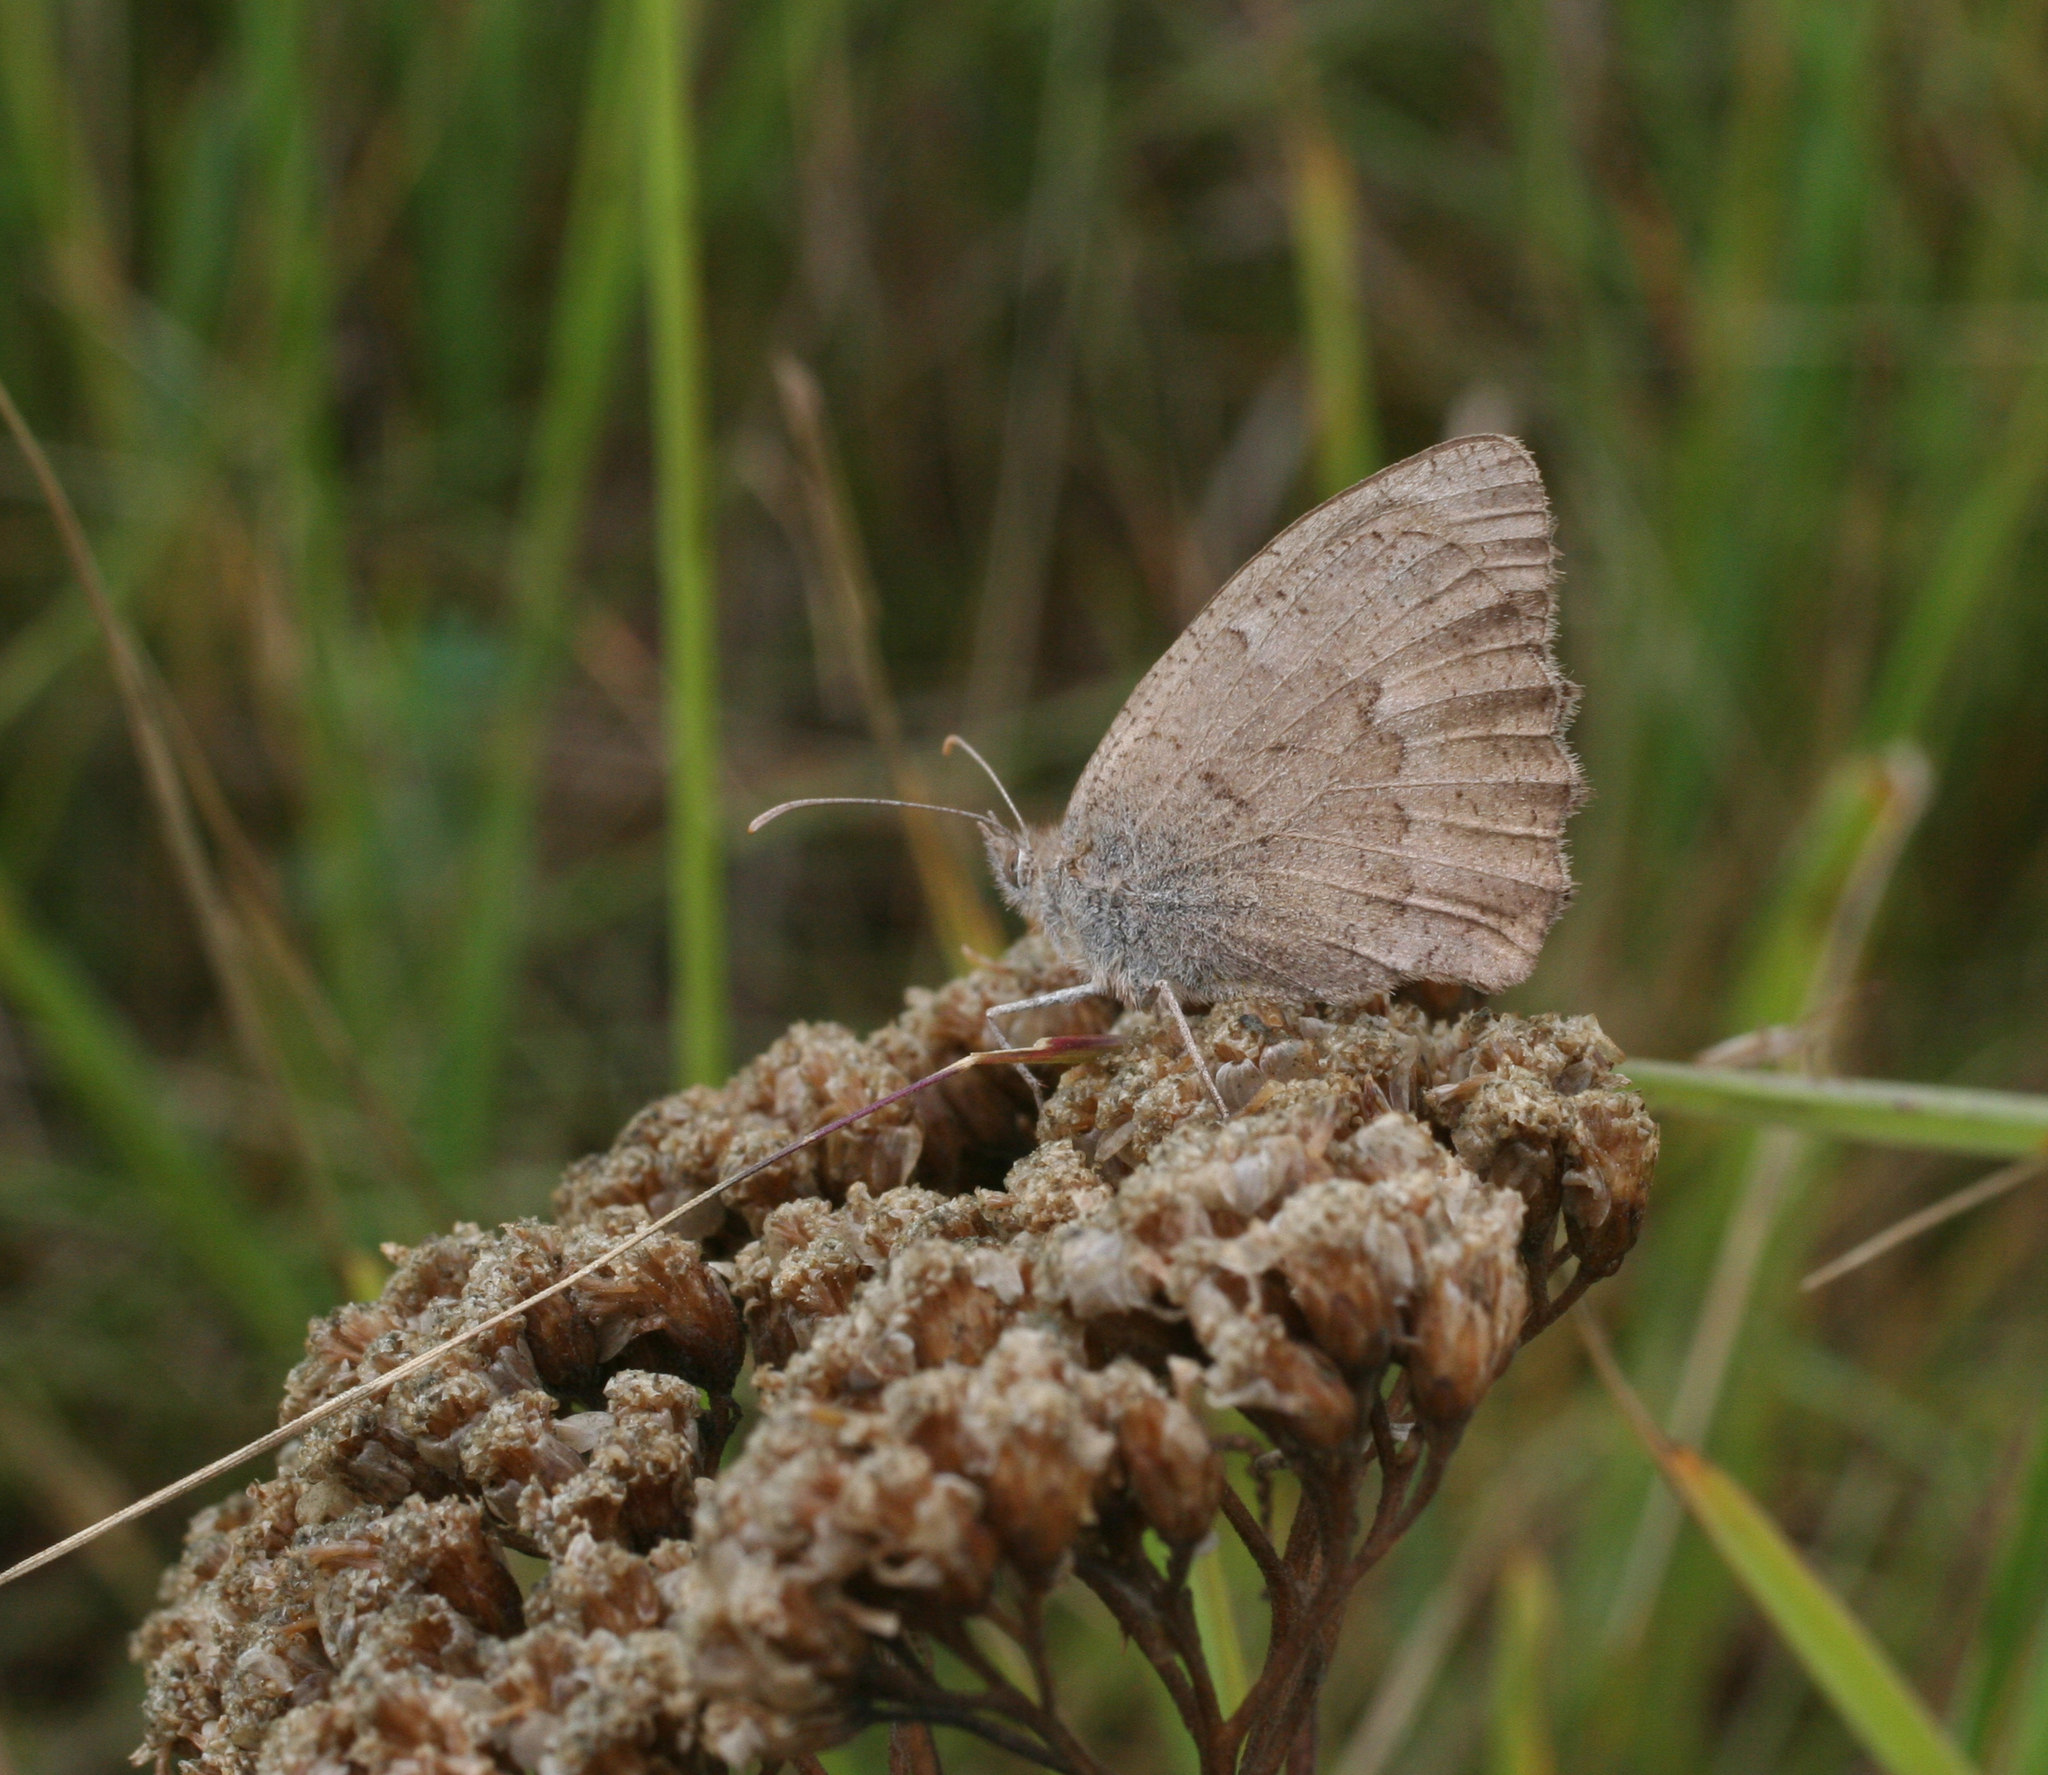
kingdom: Animalia
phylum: Arthropoda
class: Insecta
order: Lepidoptera
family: Nymphalidae
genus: Maniola
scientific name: Maniola jurtina
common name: Meadow brown
